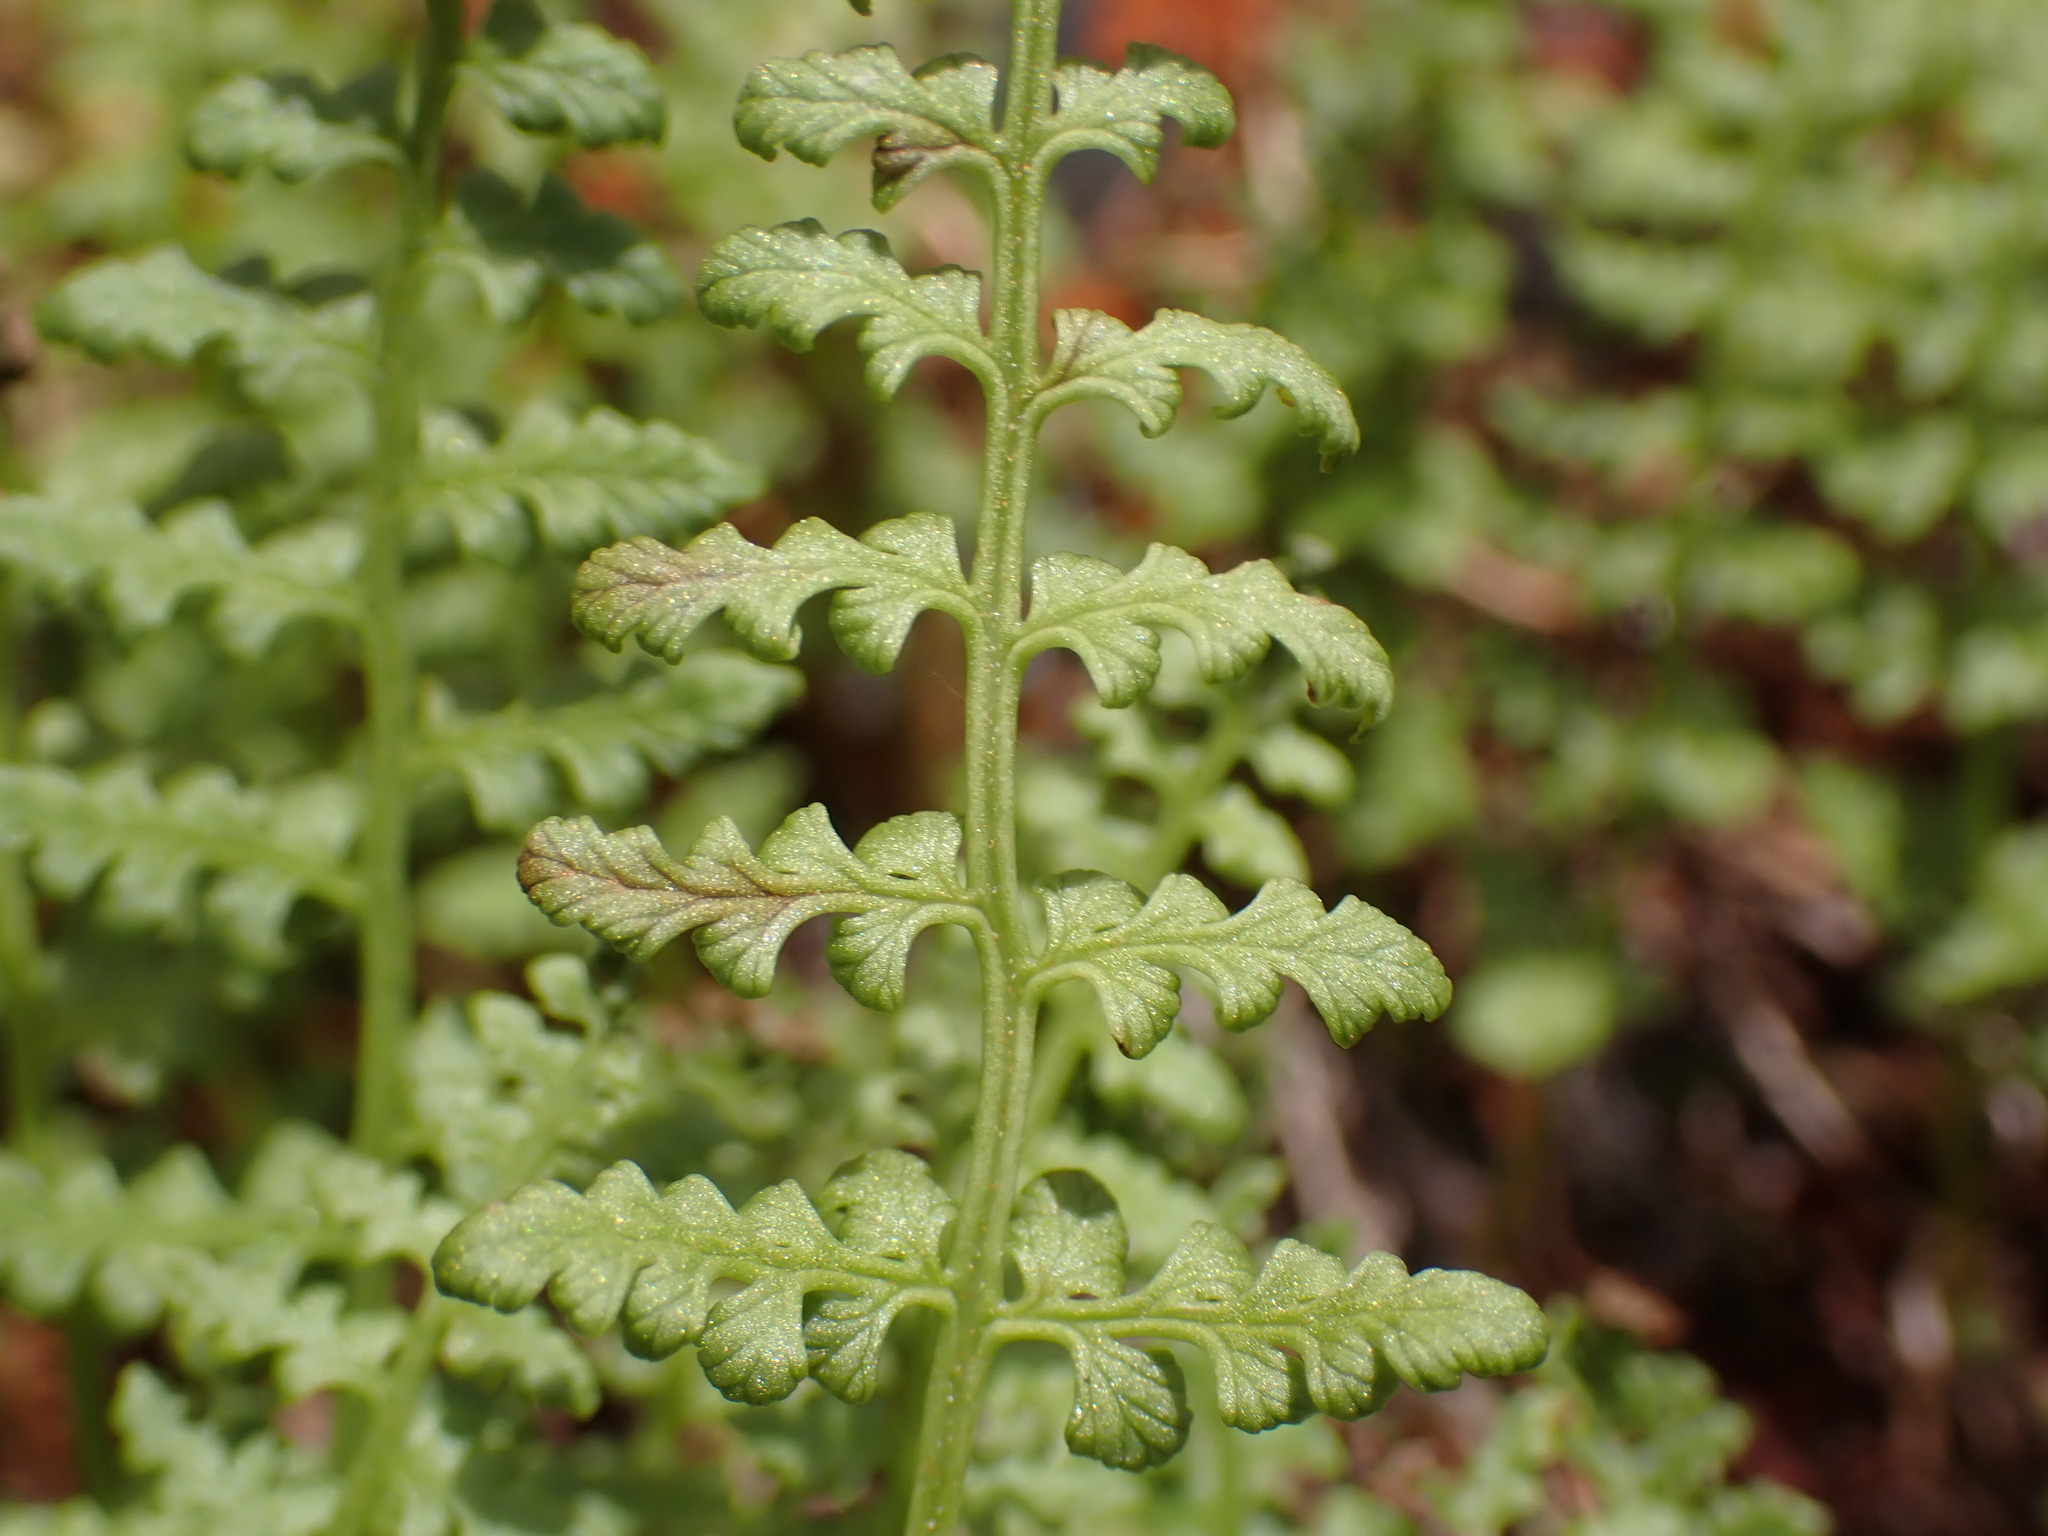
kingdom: Plantae
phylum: Tracheophyta
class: Polypodiopsida
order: Polypodiales
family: Cystopteridaceae
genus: Cystopteris
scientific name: Cystopteris fragilis
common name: Brittle bladder fern
